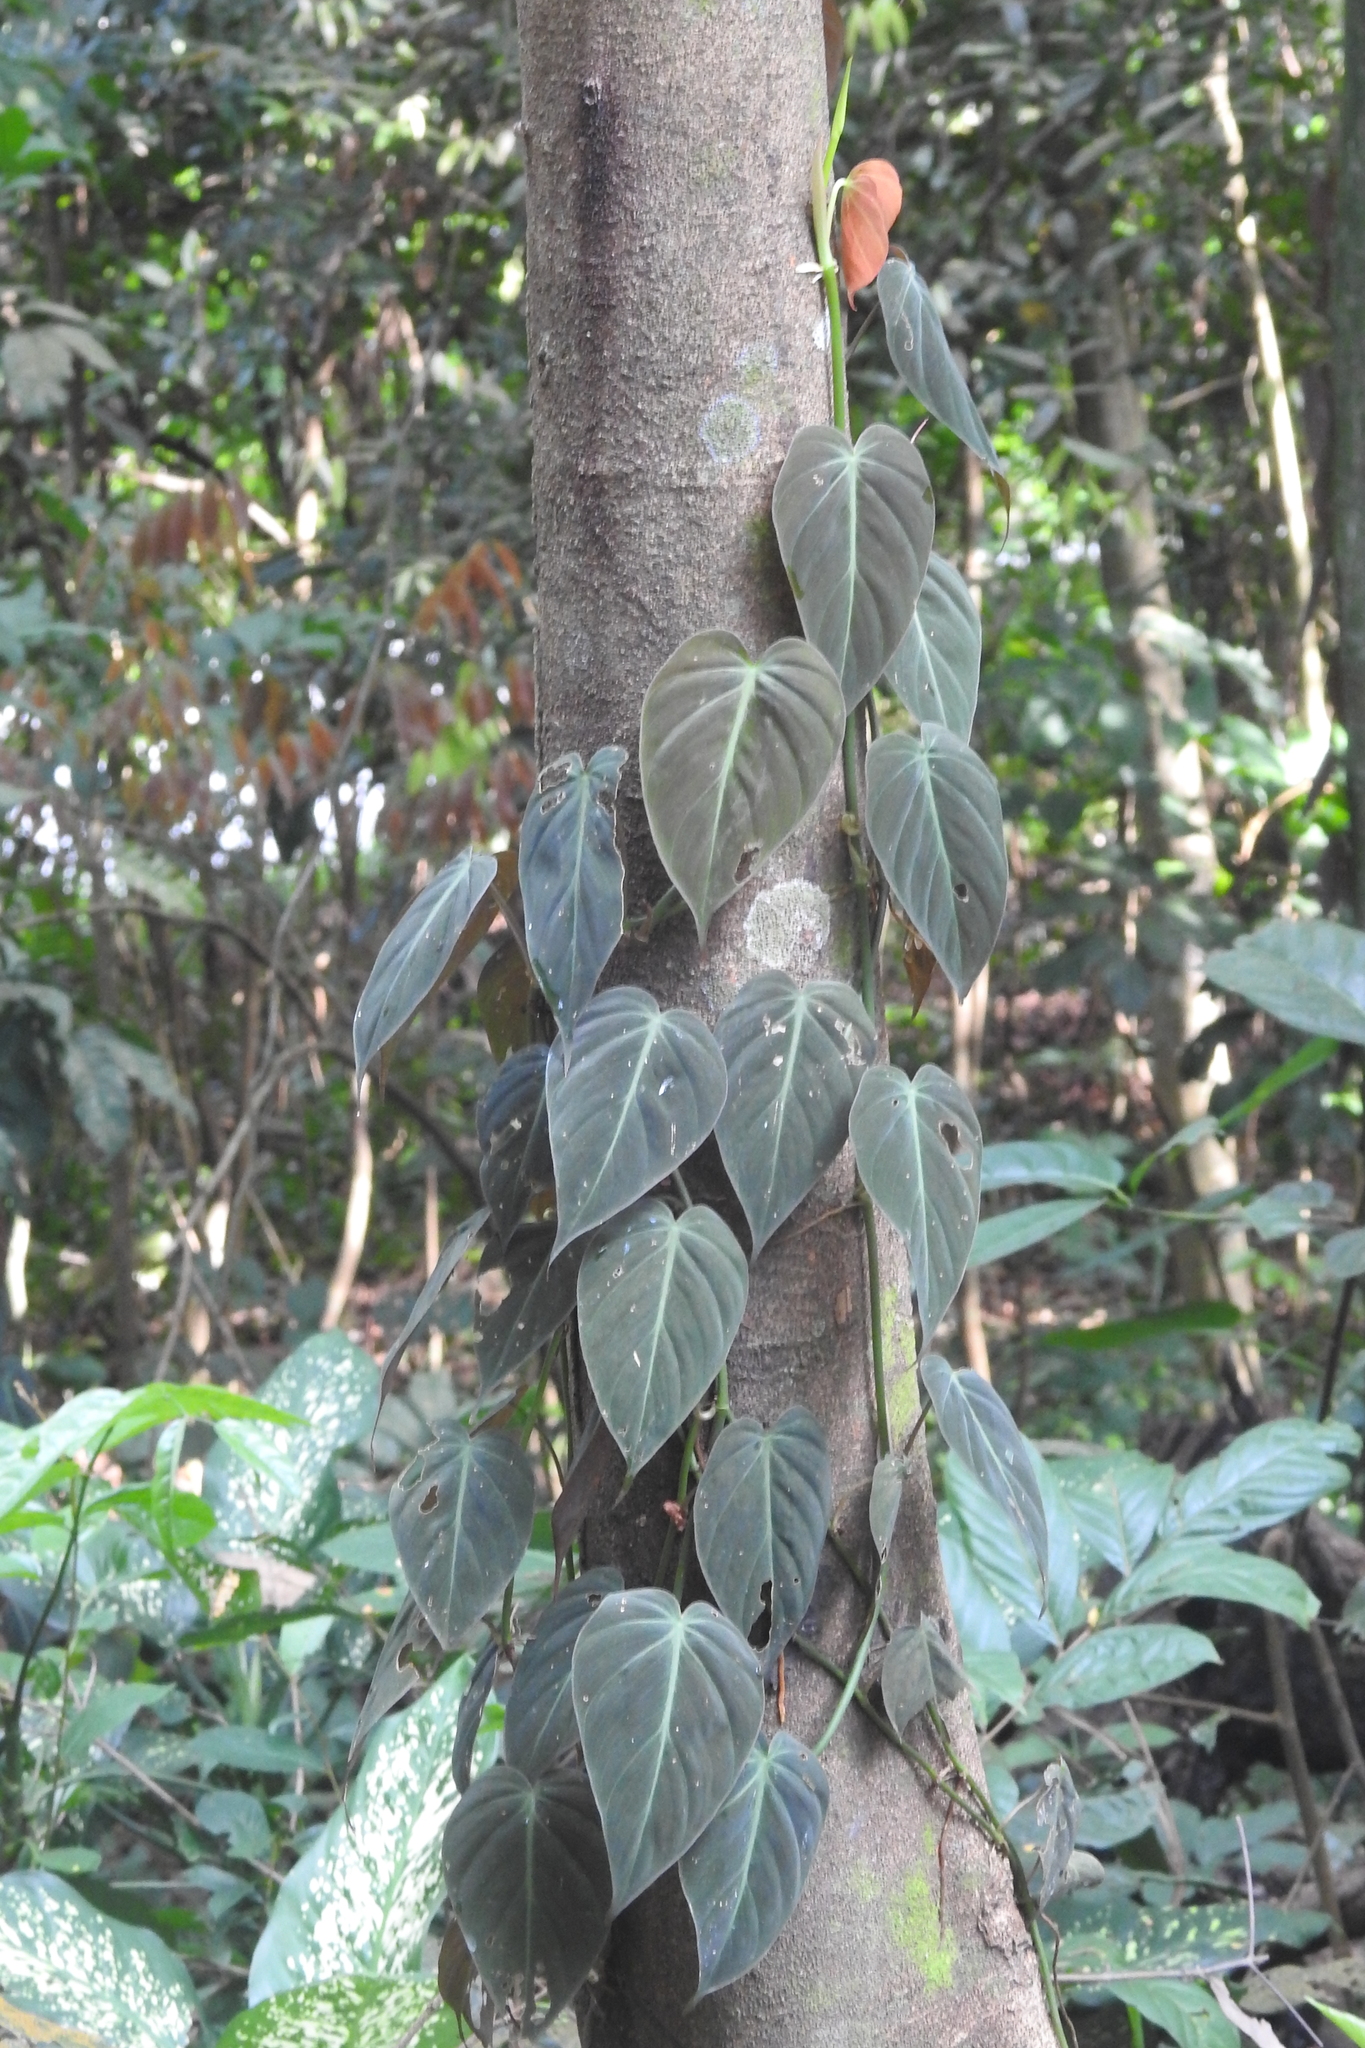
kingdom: Plantae
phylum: Tracheophyta
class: Liliopsida
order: Alismatales
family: Araceae
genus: Philodendron
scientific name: Philodendron hederaceum
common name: Vilevine
